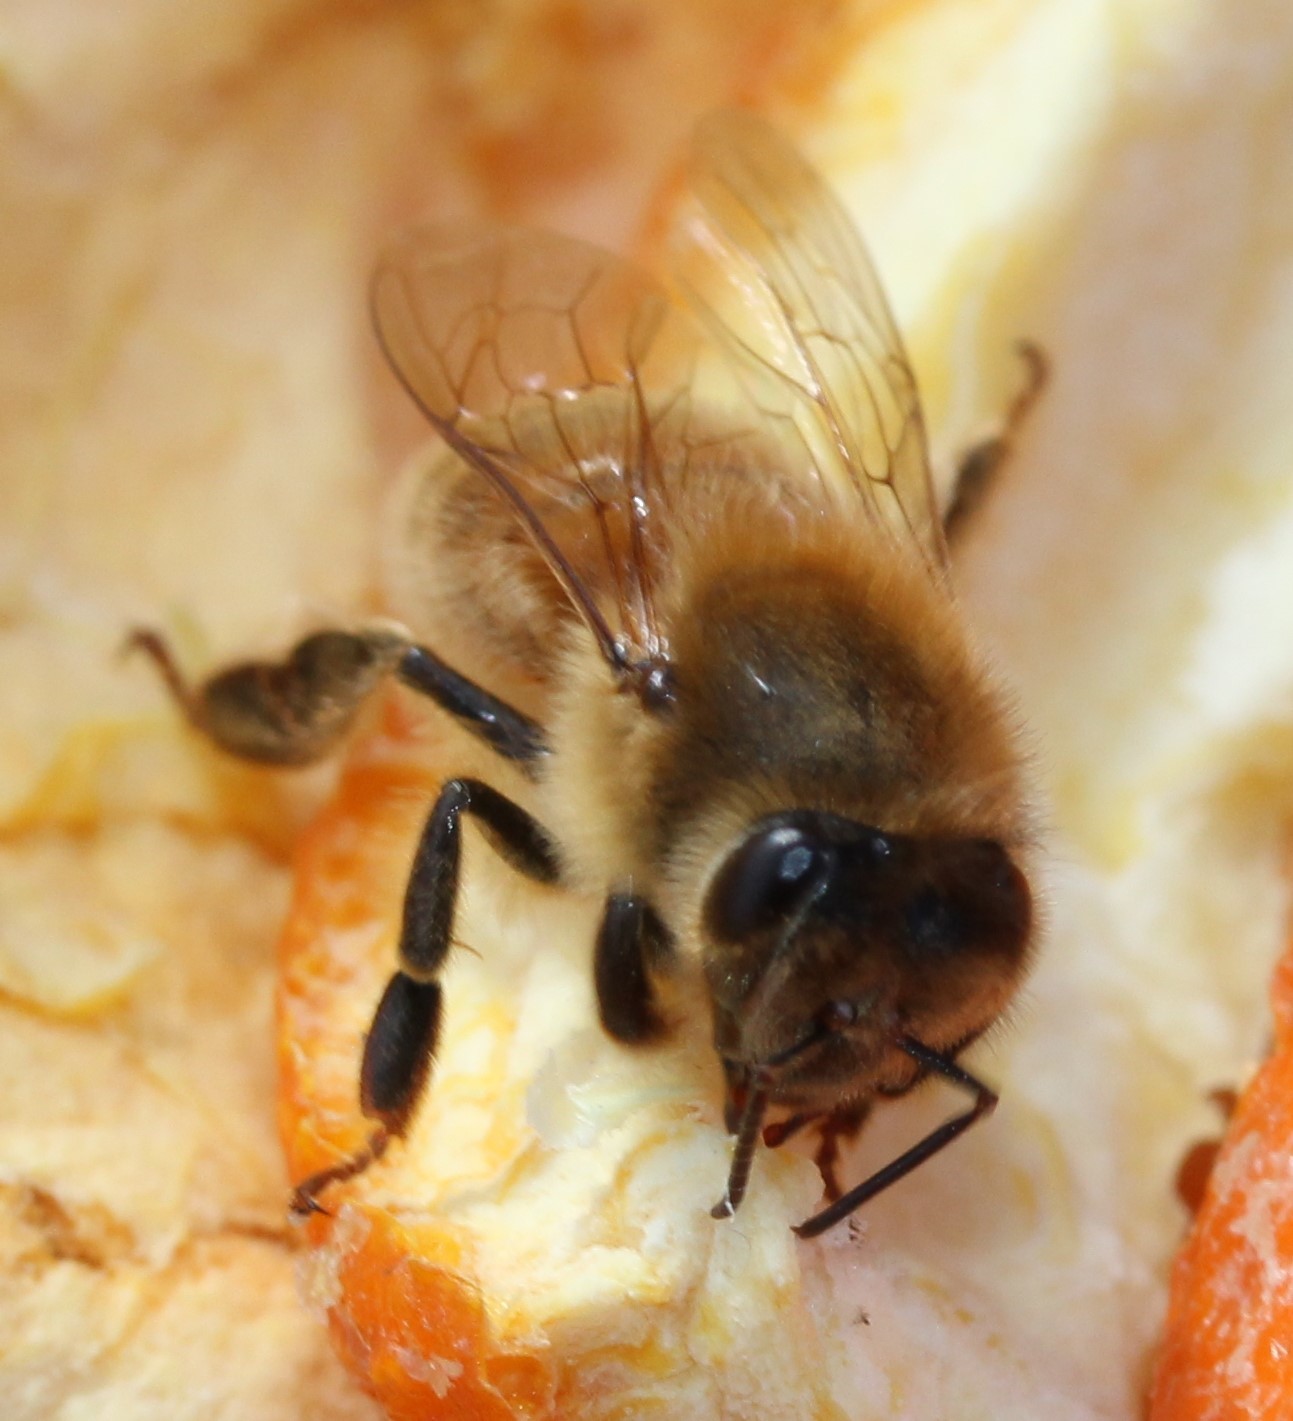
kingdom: Animalia
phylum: Arthropoda
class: Insecta
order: Hymenoptera
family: Apidae
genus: Apis
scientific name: Apis mellifera
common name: Honey bee
